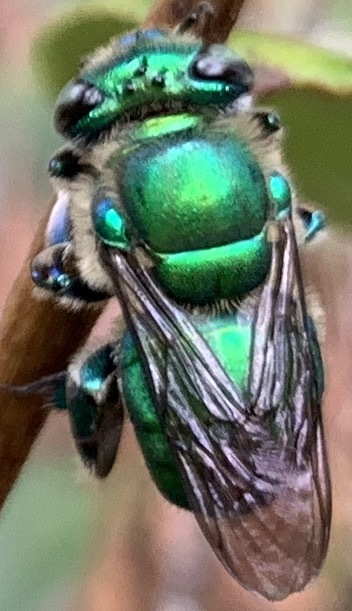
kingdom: Animalia
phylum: Arthropoda
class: Insecta
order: Hymenoptera
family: Apidae
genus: Euglossa
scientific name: Euglossa dilemma
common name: Green orchid bee
